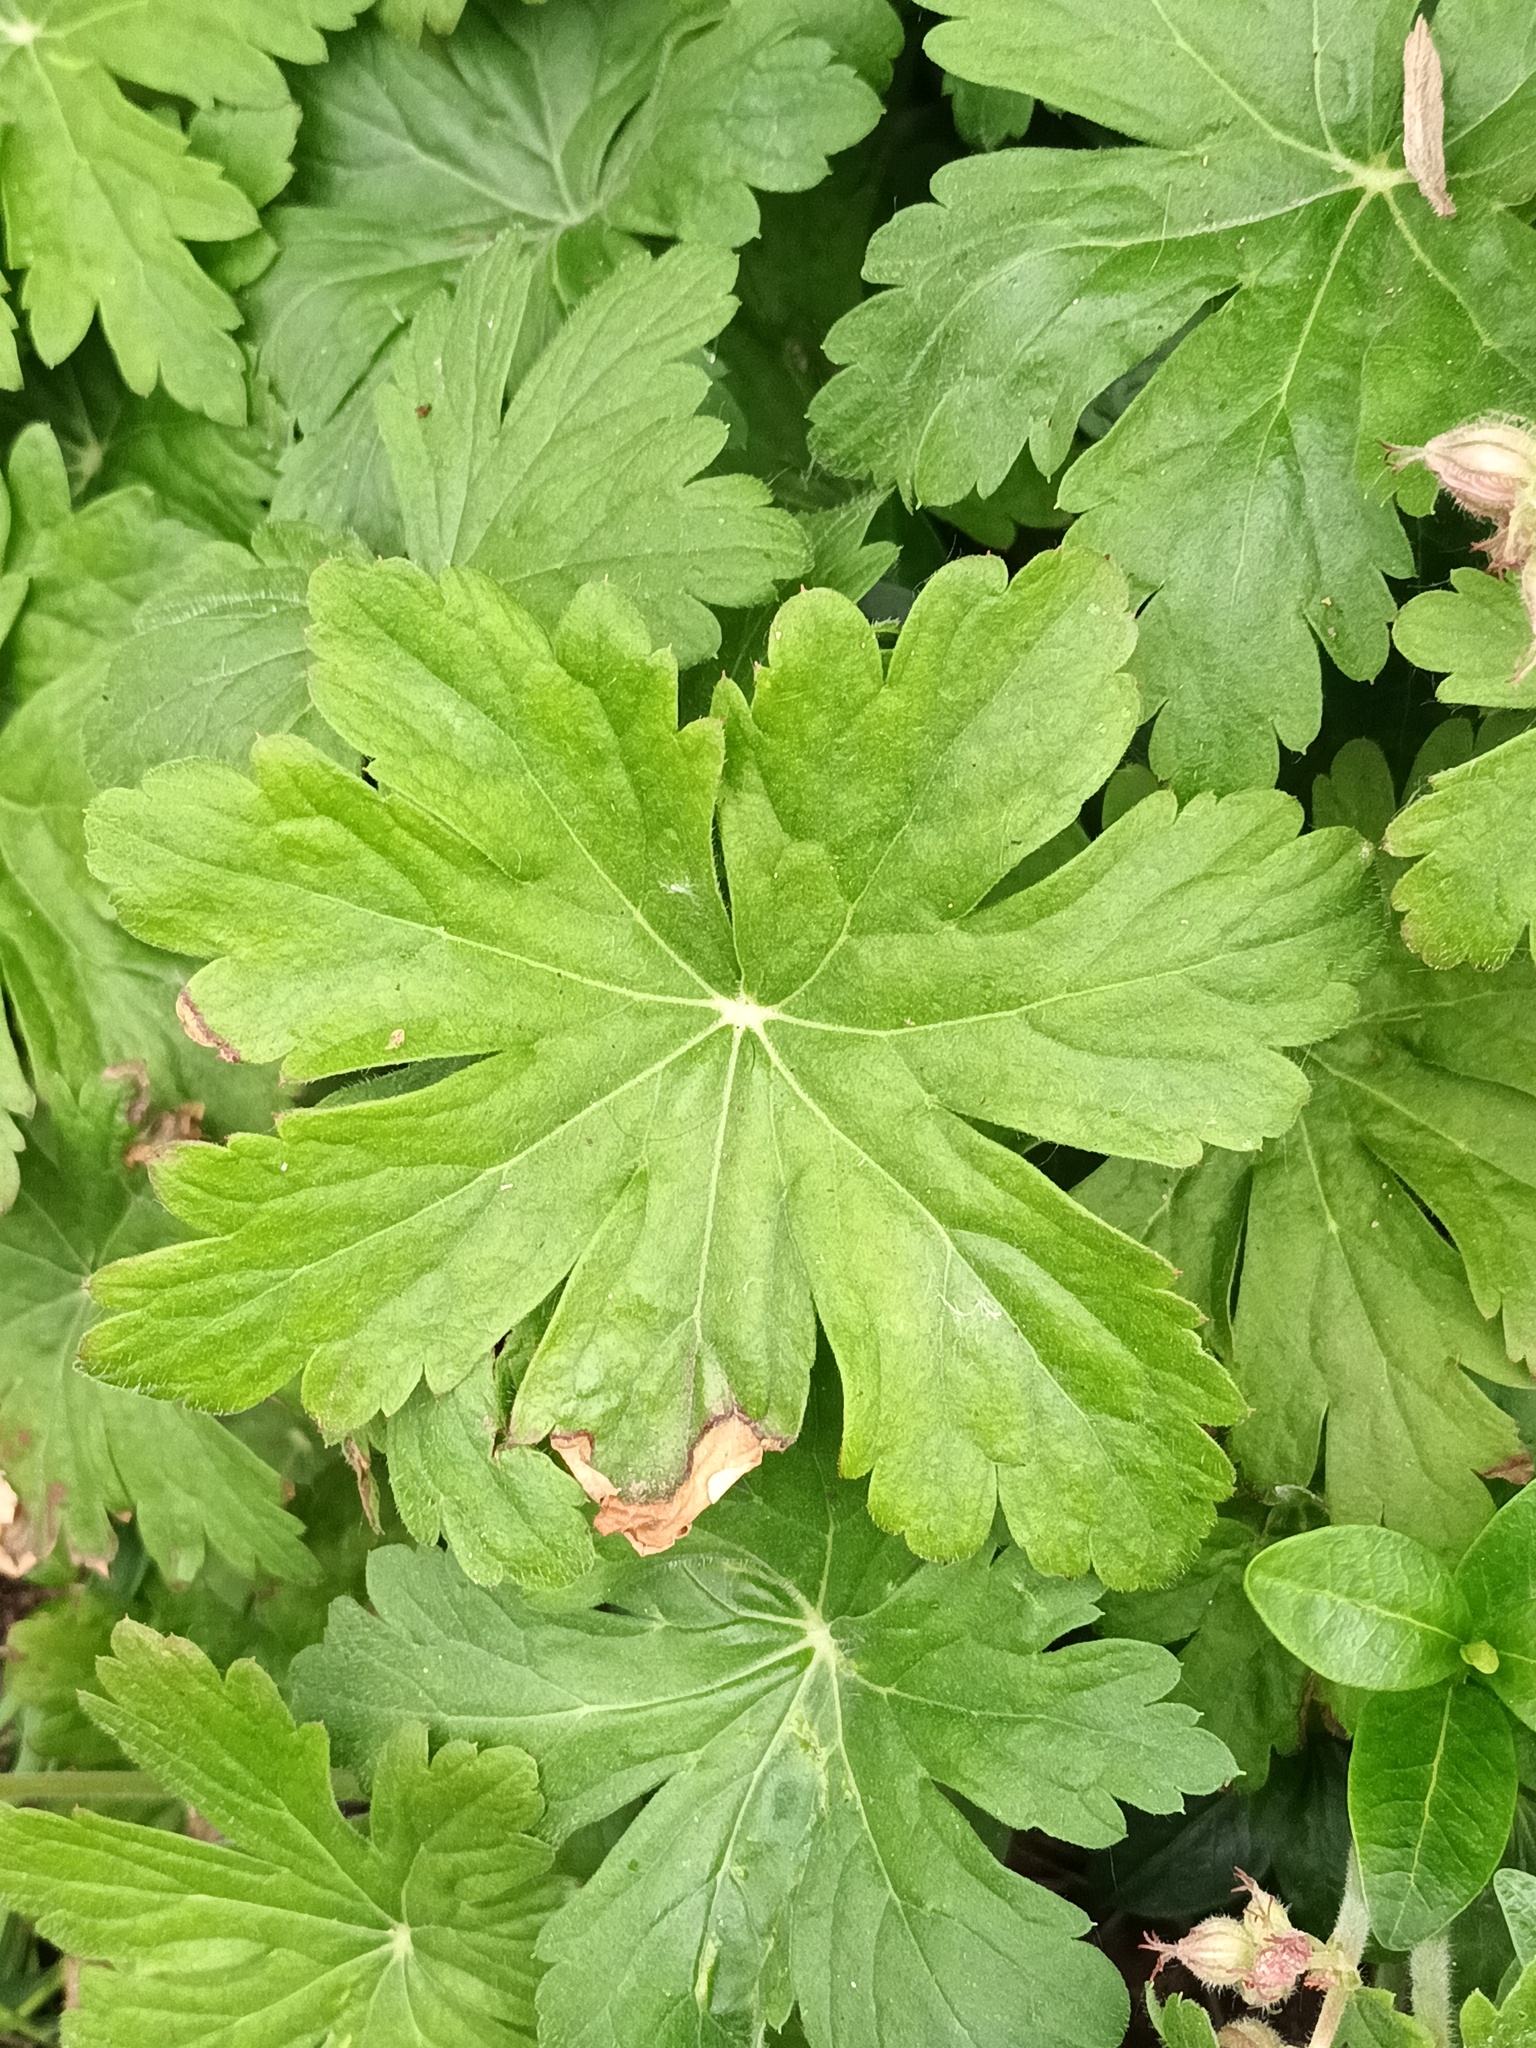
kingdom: Plantae
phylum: Tracheophyta
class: Magnoliopsida
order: Geraniales
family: Geraniaceae
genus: Geranium
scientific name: Geranium macrorrhizum
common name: Rock crane's-bill
